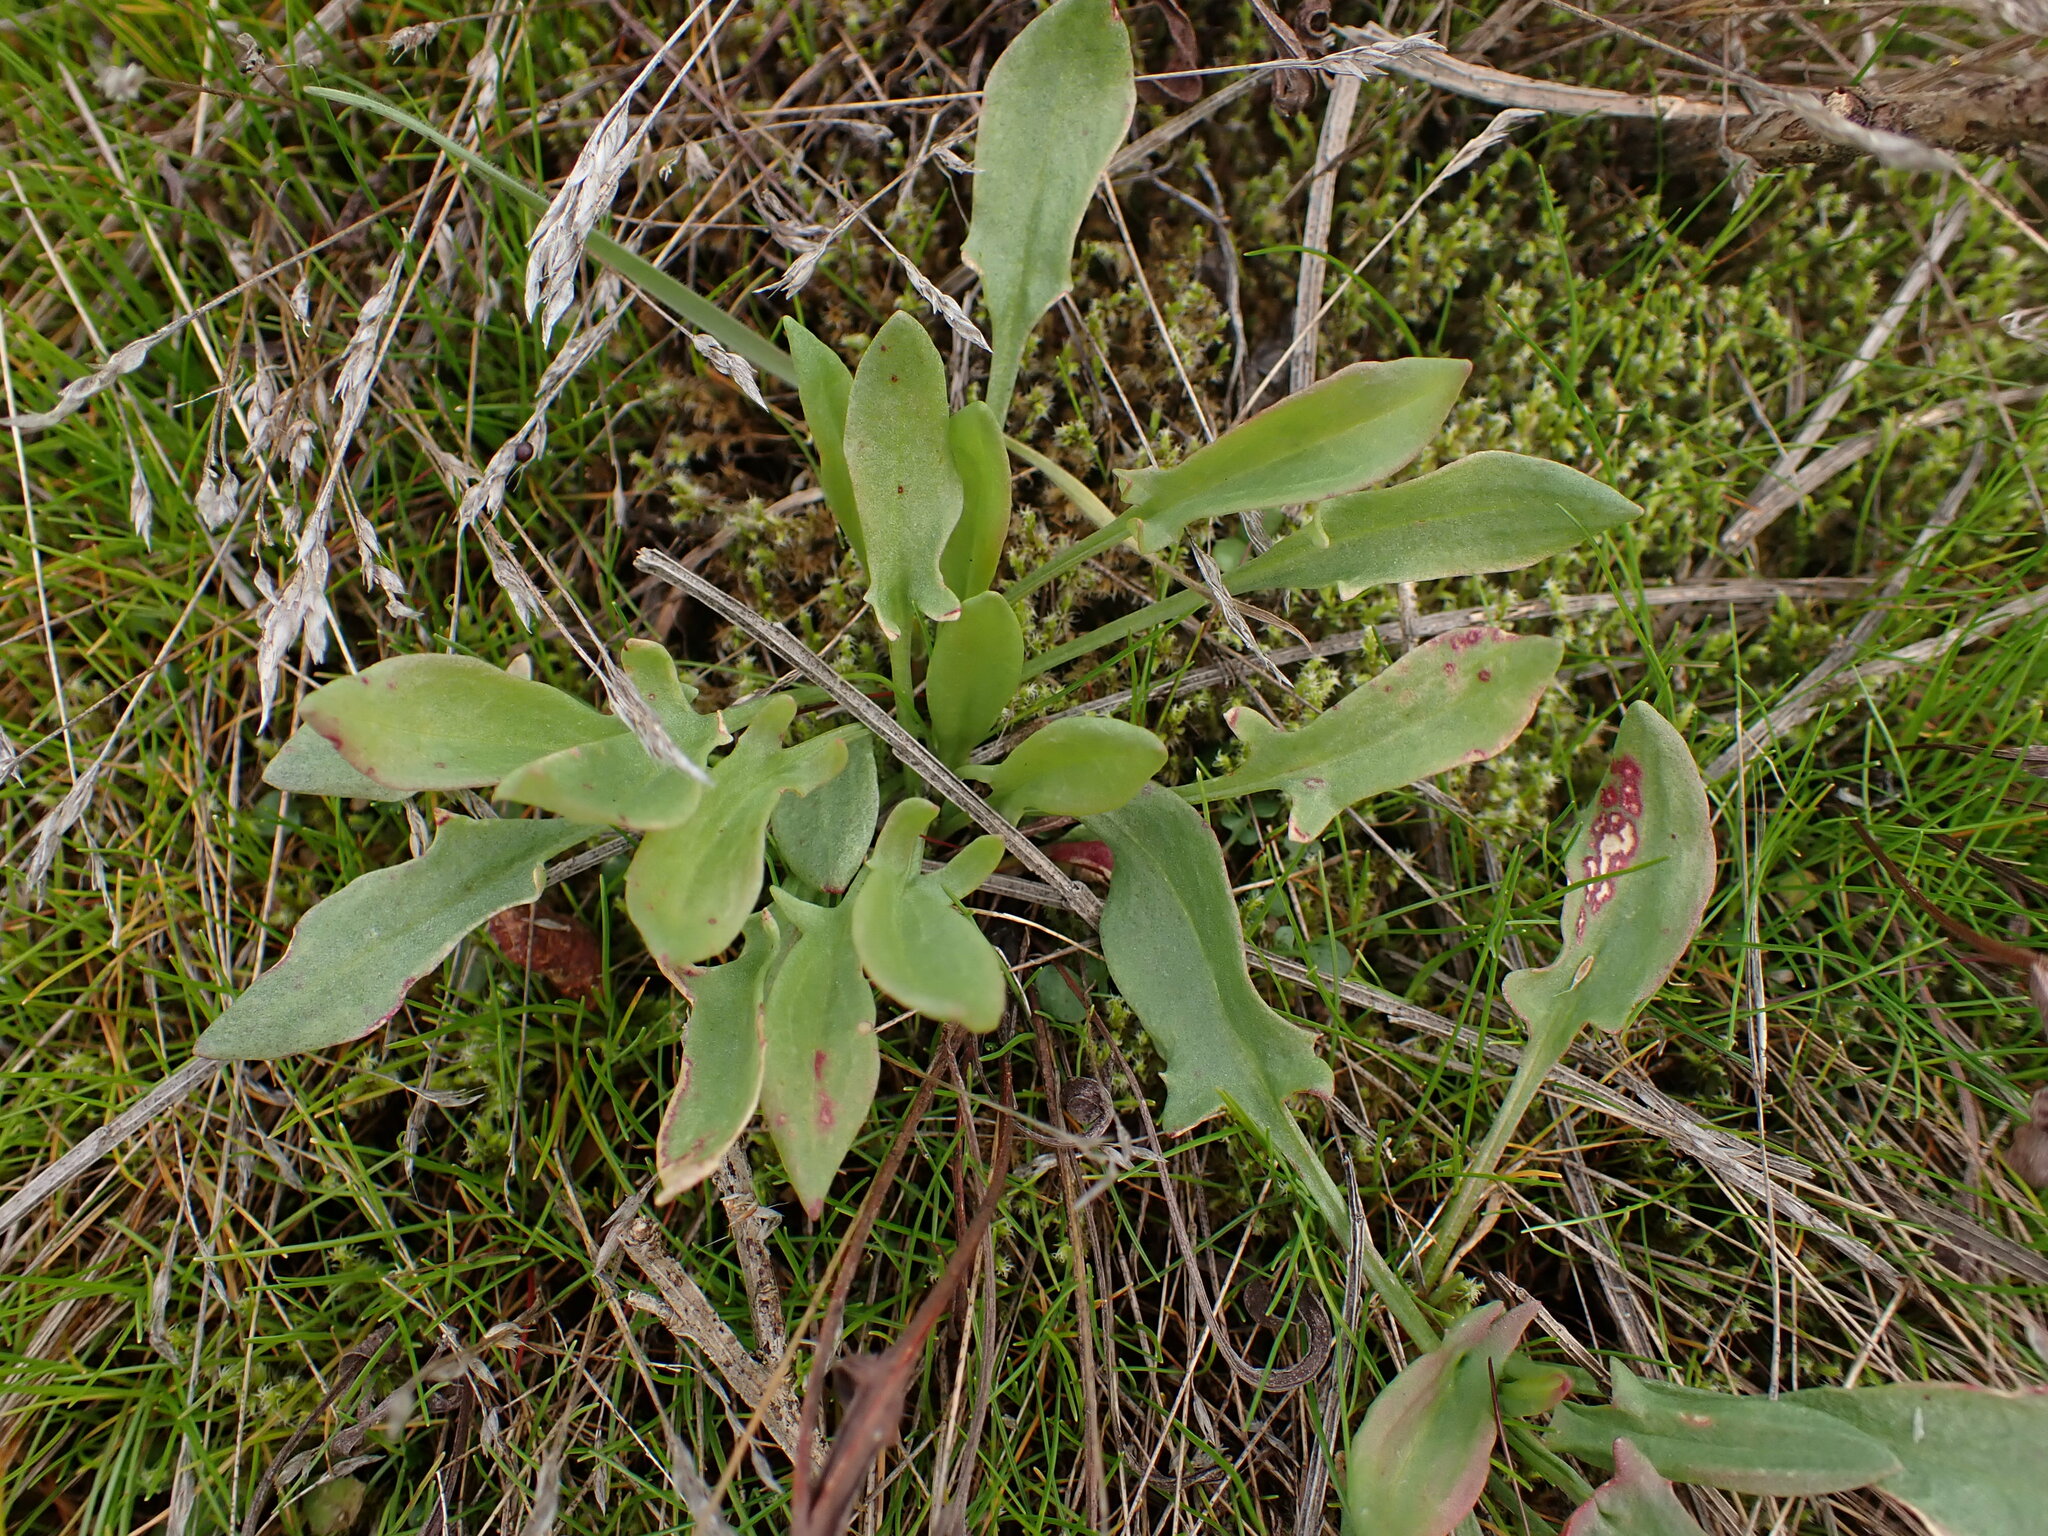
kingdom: Plantae
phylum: Tracheophyta
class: Magnoliopsida
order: Caryophyllales
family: Polygonaceae
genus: Rumex
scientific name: Rumex acetosella
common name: Common sheep sorrel
